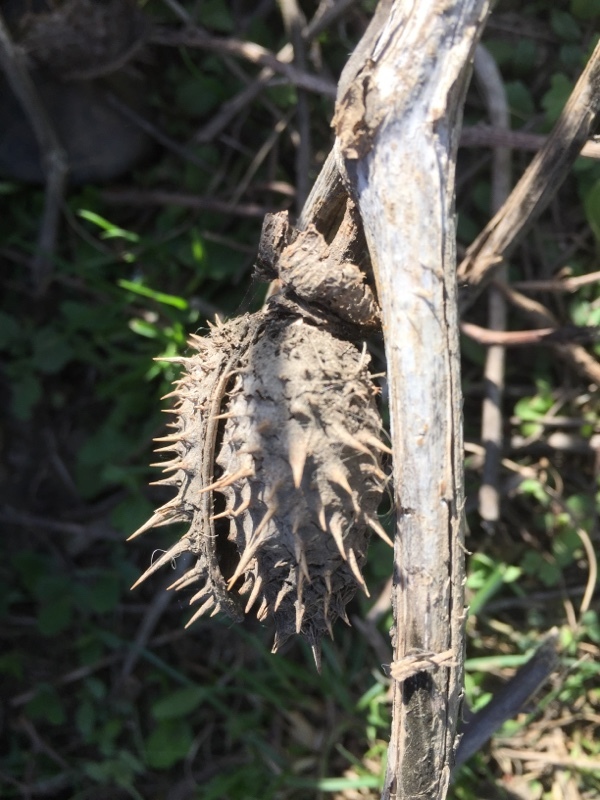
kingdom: Plantae
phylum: Tracheophyta
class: Magnoliopsida
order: Solanales
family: Solanaceae
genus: Datura
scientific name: Datura stramonium
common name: Thorn-apple
